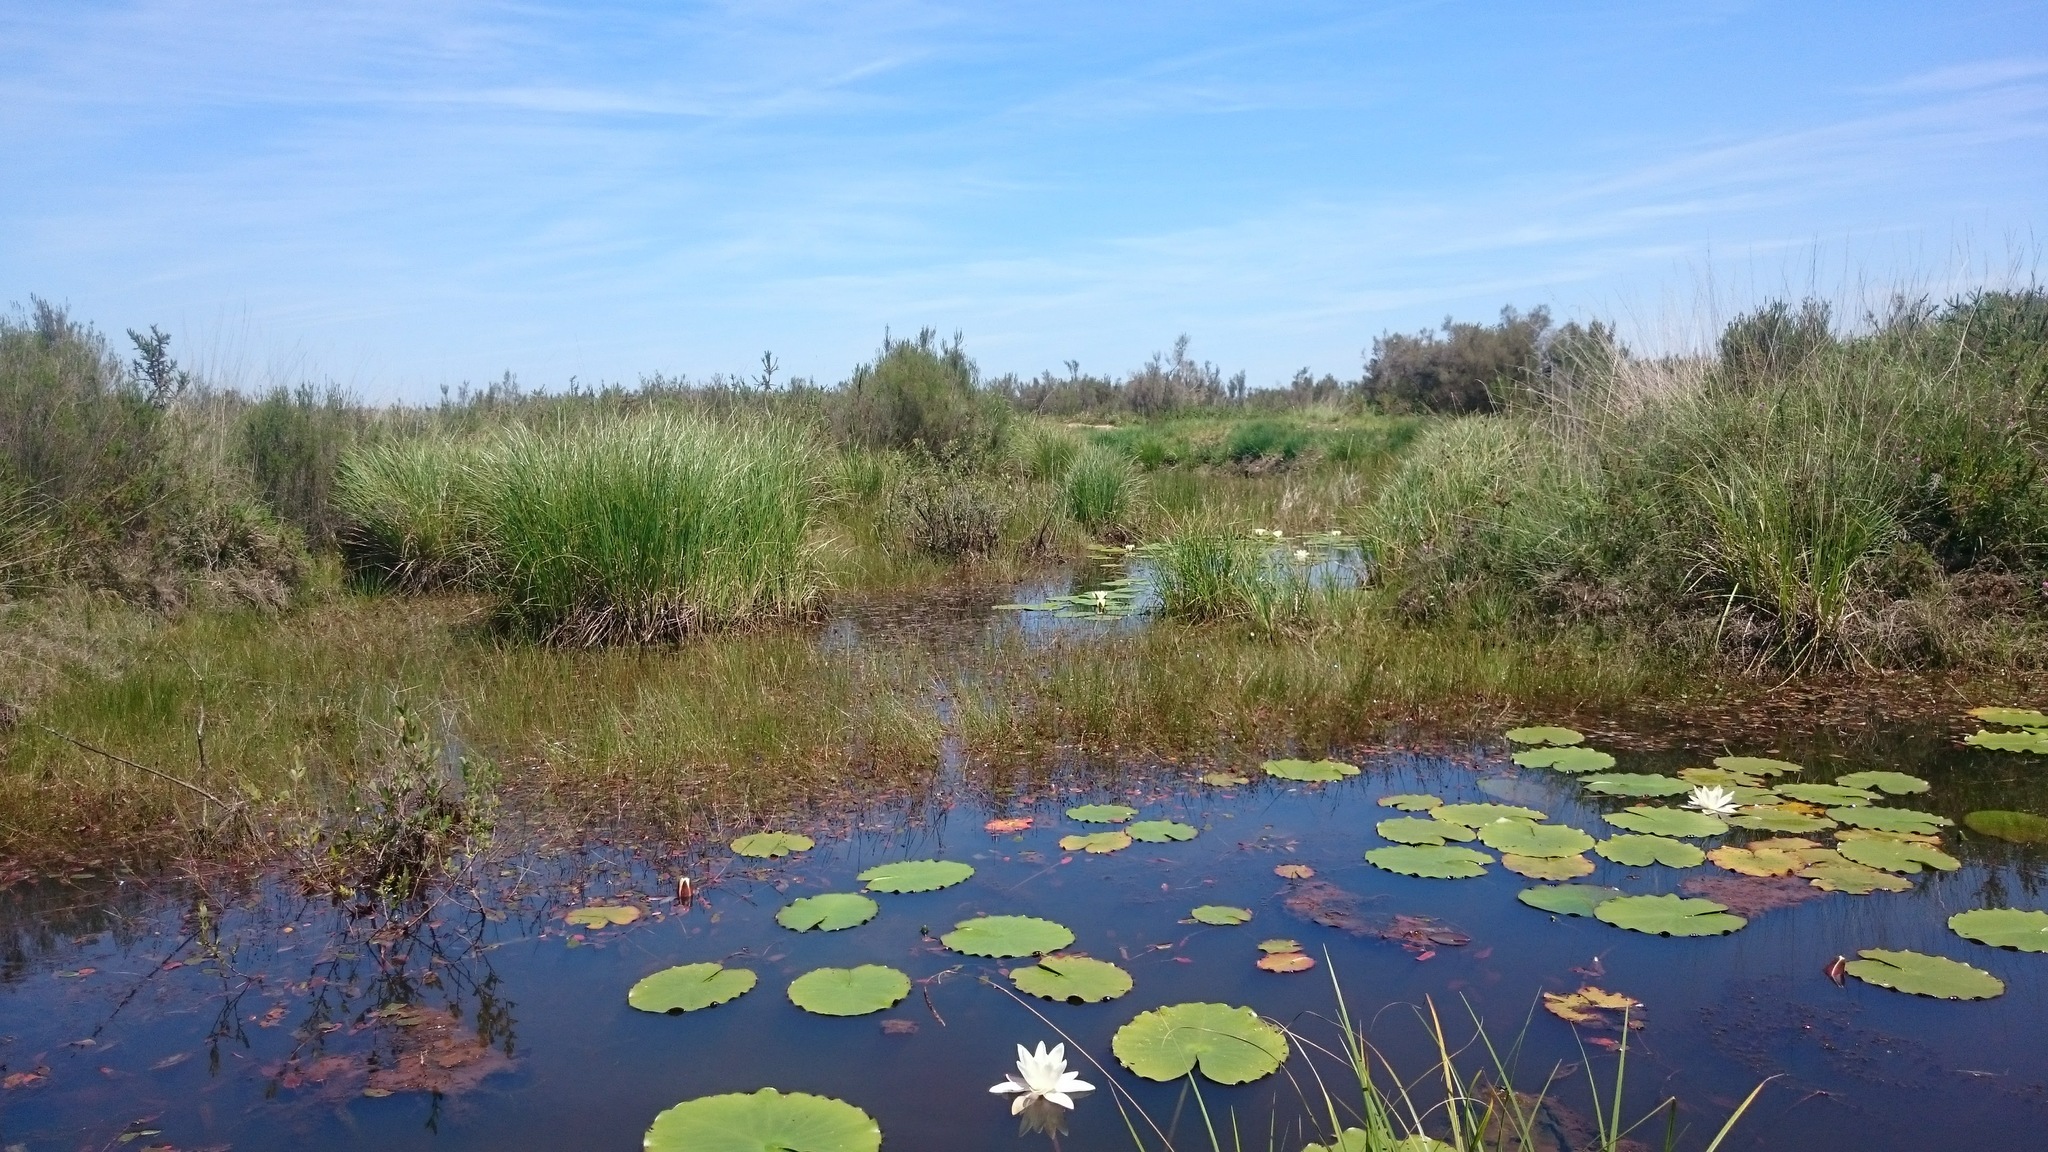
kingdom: Plantae
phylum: Tracheophyta
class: Magnoliopsida
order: Nymphaeales
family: Nymphaeaceae
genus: Nymphaea
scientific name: Nymphaea alba
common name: White water-lily
